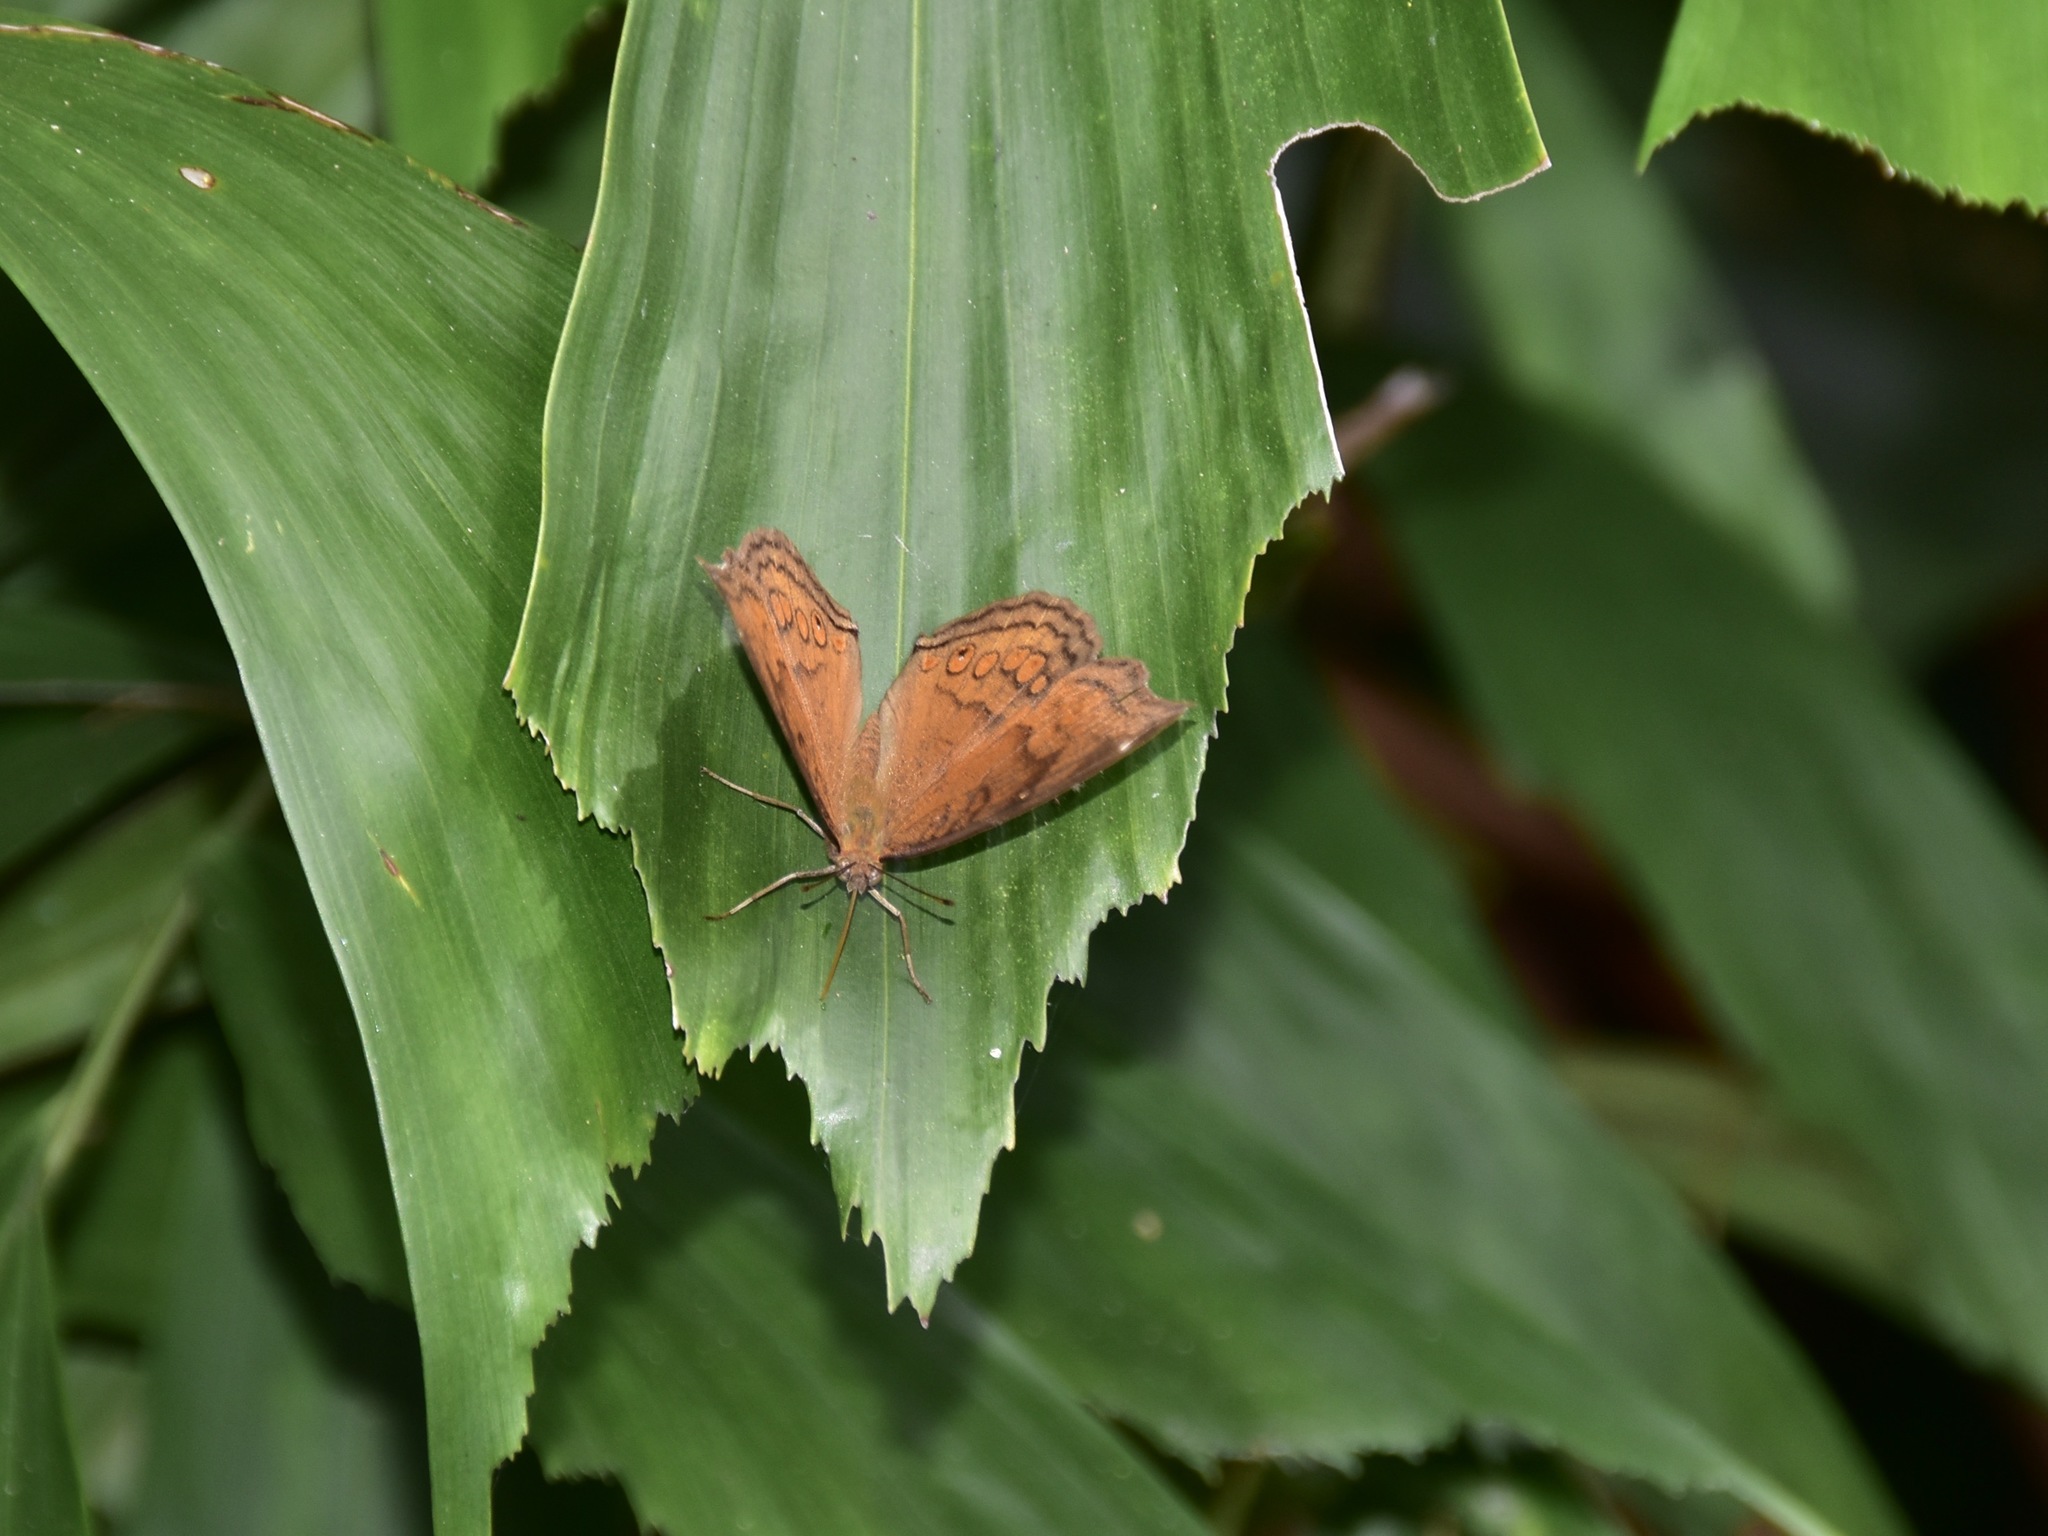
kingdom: Animalia
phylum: Arthropoda
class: Insecta
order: Lepidoptera
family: Nymphalidae
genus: Junonia
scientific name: Junonia hedonia
